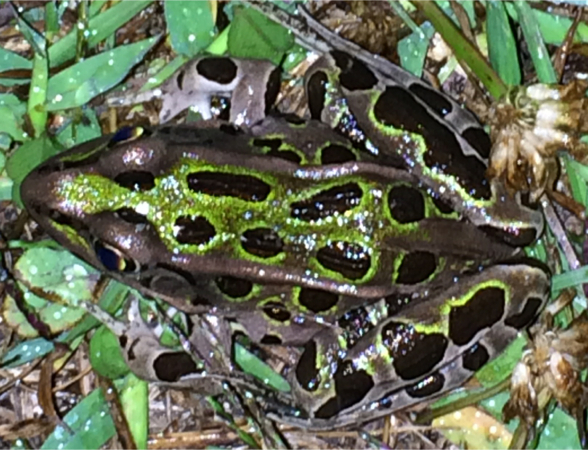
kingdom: Animalia
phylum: Chordata
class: Amphibia
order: Anura
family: Ranidae
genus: Lithobates
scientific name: Lithobates pipiens
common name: Northern leopard frog
